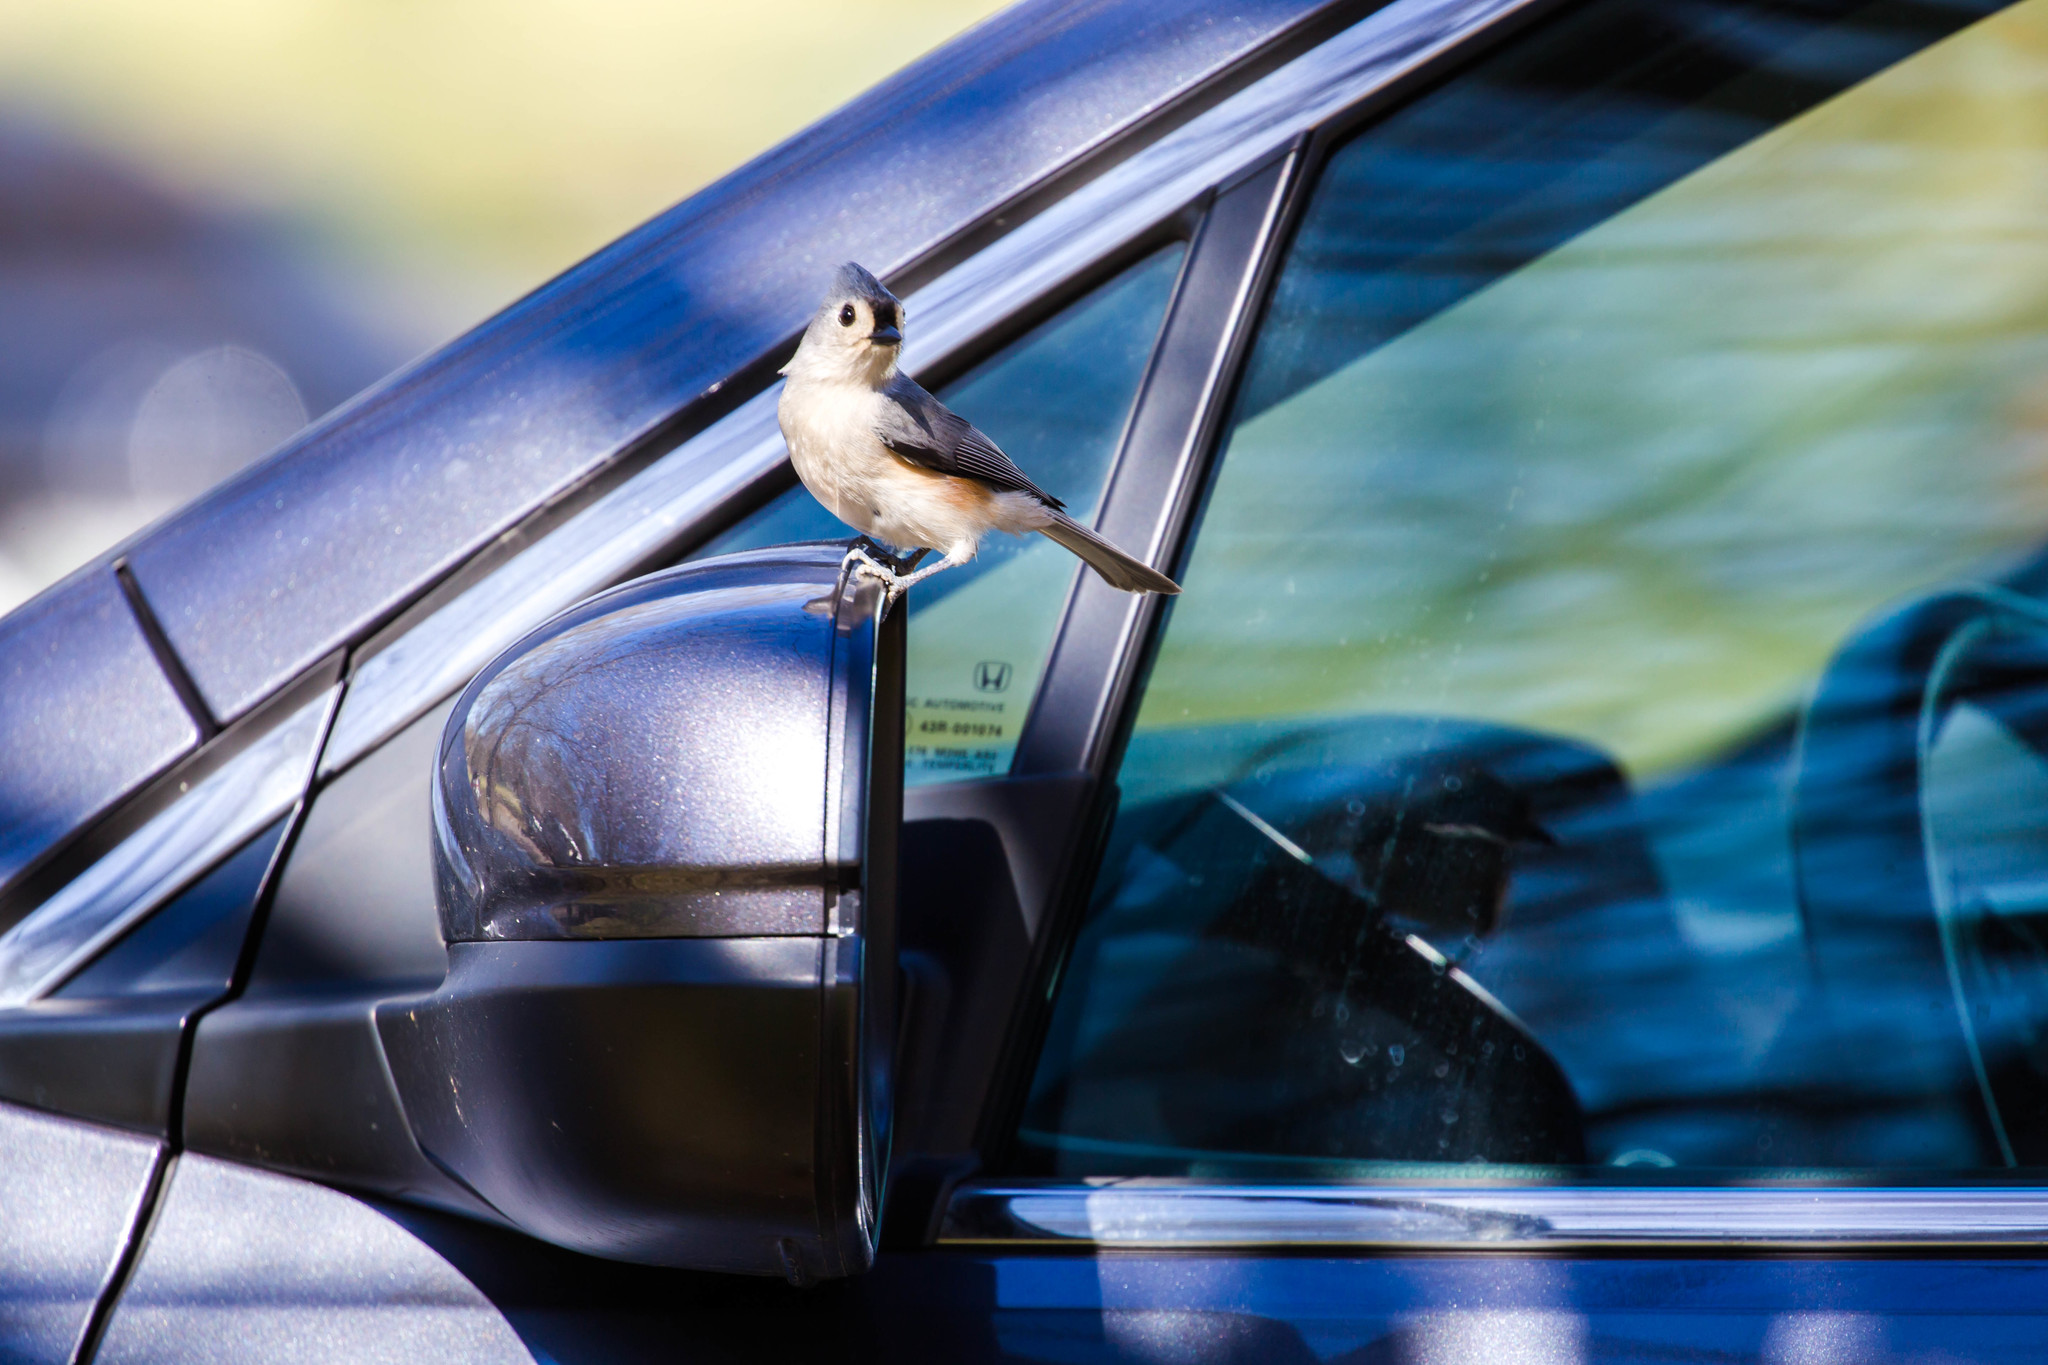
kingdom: Animalia
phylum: Chordata
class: Aves
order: Passeriformes
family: Paridae
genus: Baeolophus
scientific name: Baeolophus bicolor
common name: Tufted titmouse
